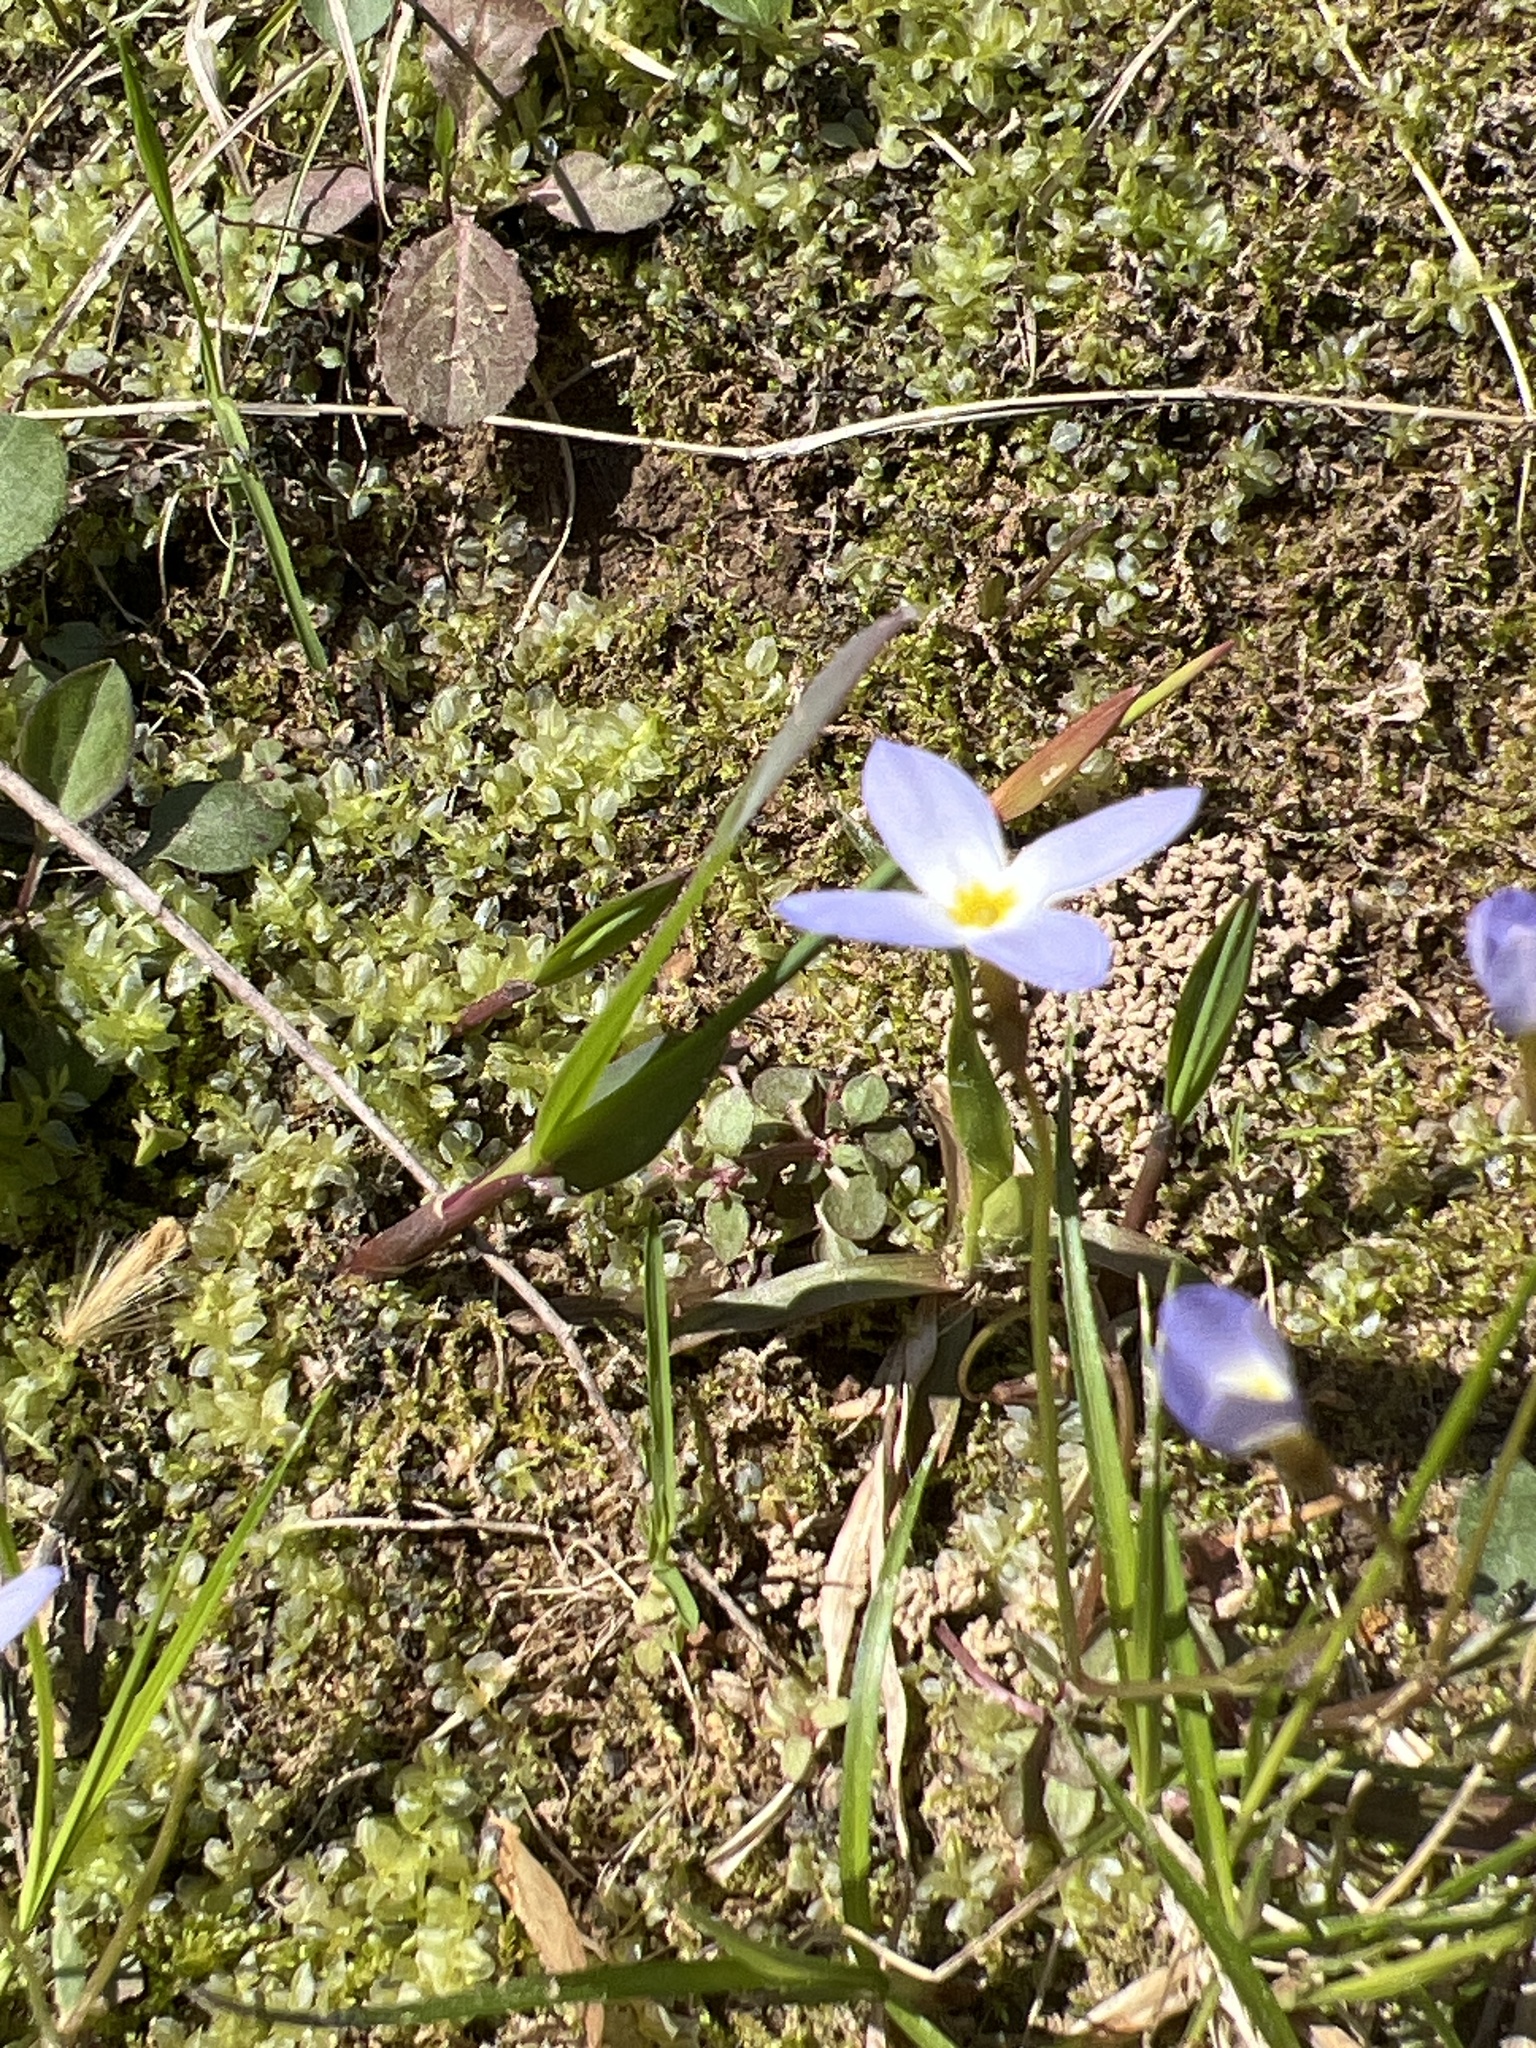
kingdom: Plantae
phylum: Tracheophyta
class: Magnoliopsida
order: Gentianales
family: Rubiaceae
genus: Houstonia
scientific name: Houstonia caerulea
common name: Bluets
